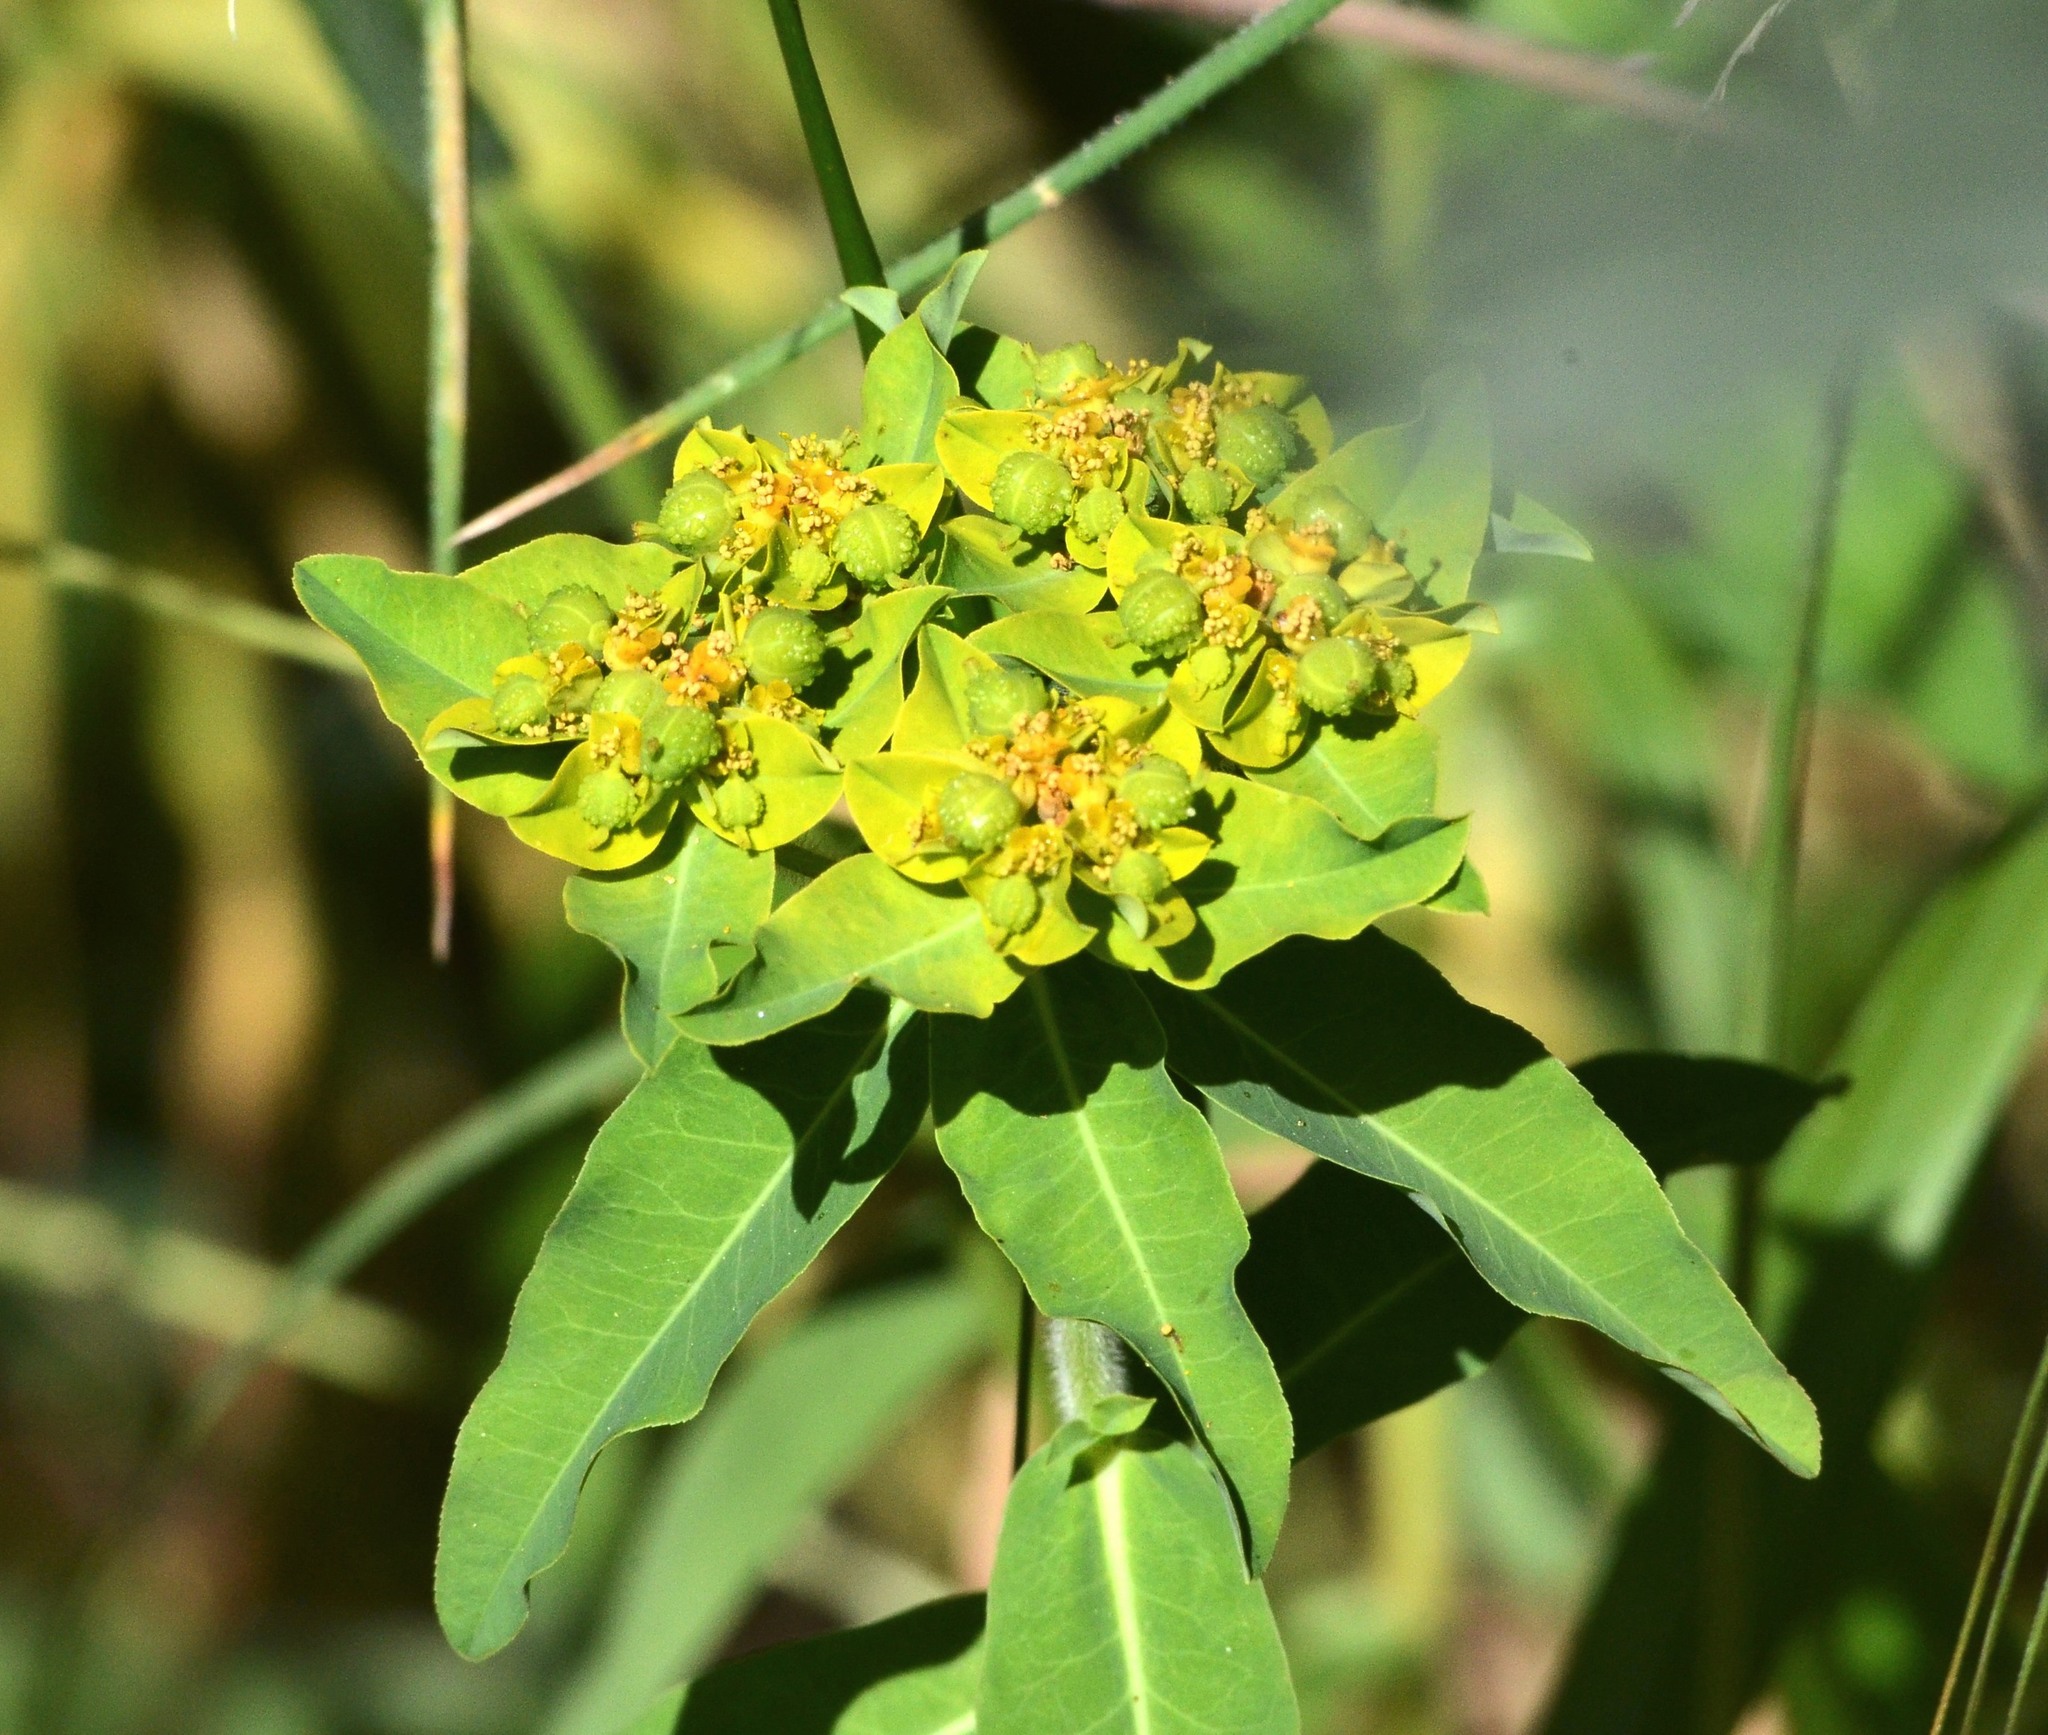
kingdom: Plantae
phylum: Tracheophyta
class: Magnoliopsida
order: Malpighiales
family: Euphorbiaceae
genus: Euphorbia
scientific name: Euphorbia oblongata
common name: Balkan spurge
